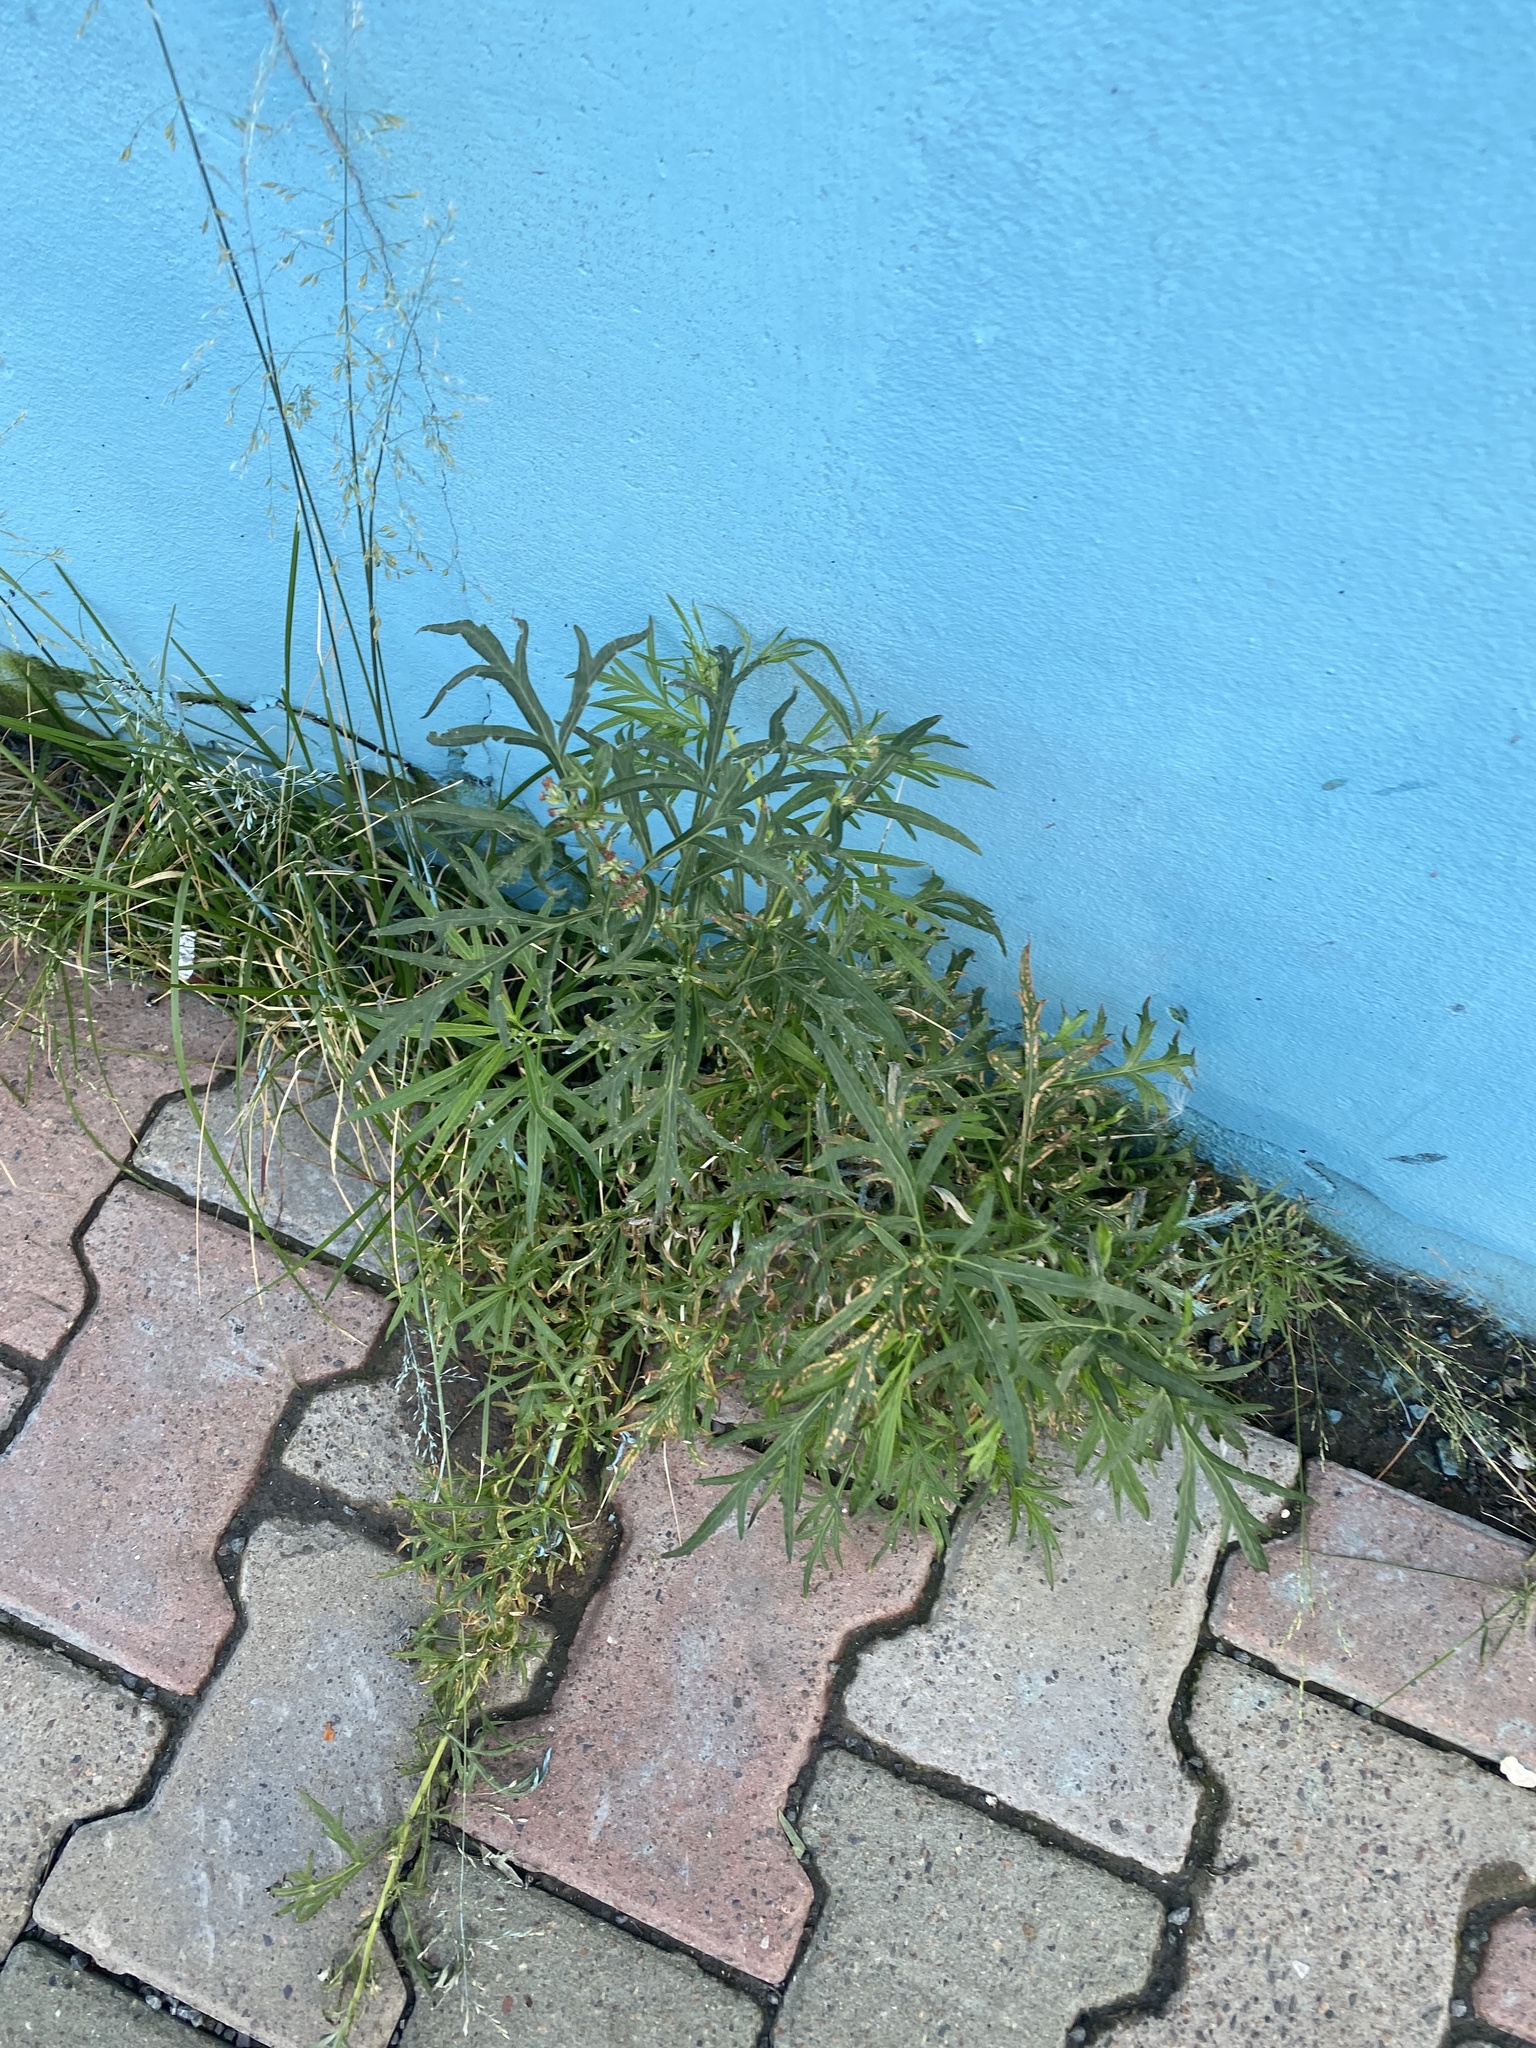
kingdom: Plantae
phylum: Tracheophyta
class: Magnoliopsida
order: Asterales
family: Asteraceae
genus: Artemisia
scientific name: Artemisia tilesii
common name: Aleutian mugwort
